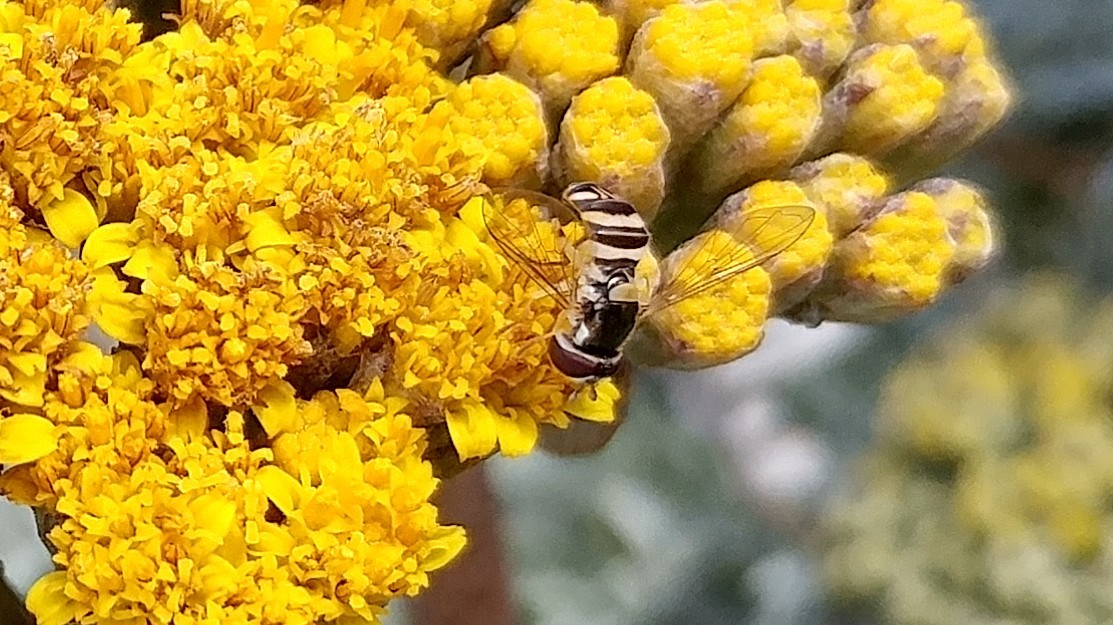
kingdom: Animalia
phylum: Arthropoda
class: Insecta
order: Diptera
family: Syrphidae
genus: Allograpta
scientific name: Allograpta exotica
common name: Syrphid fly
